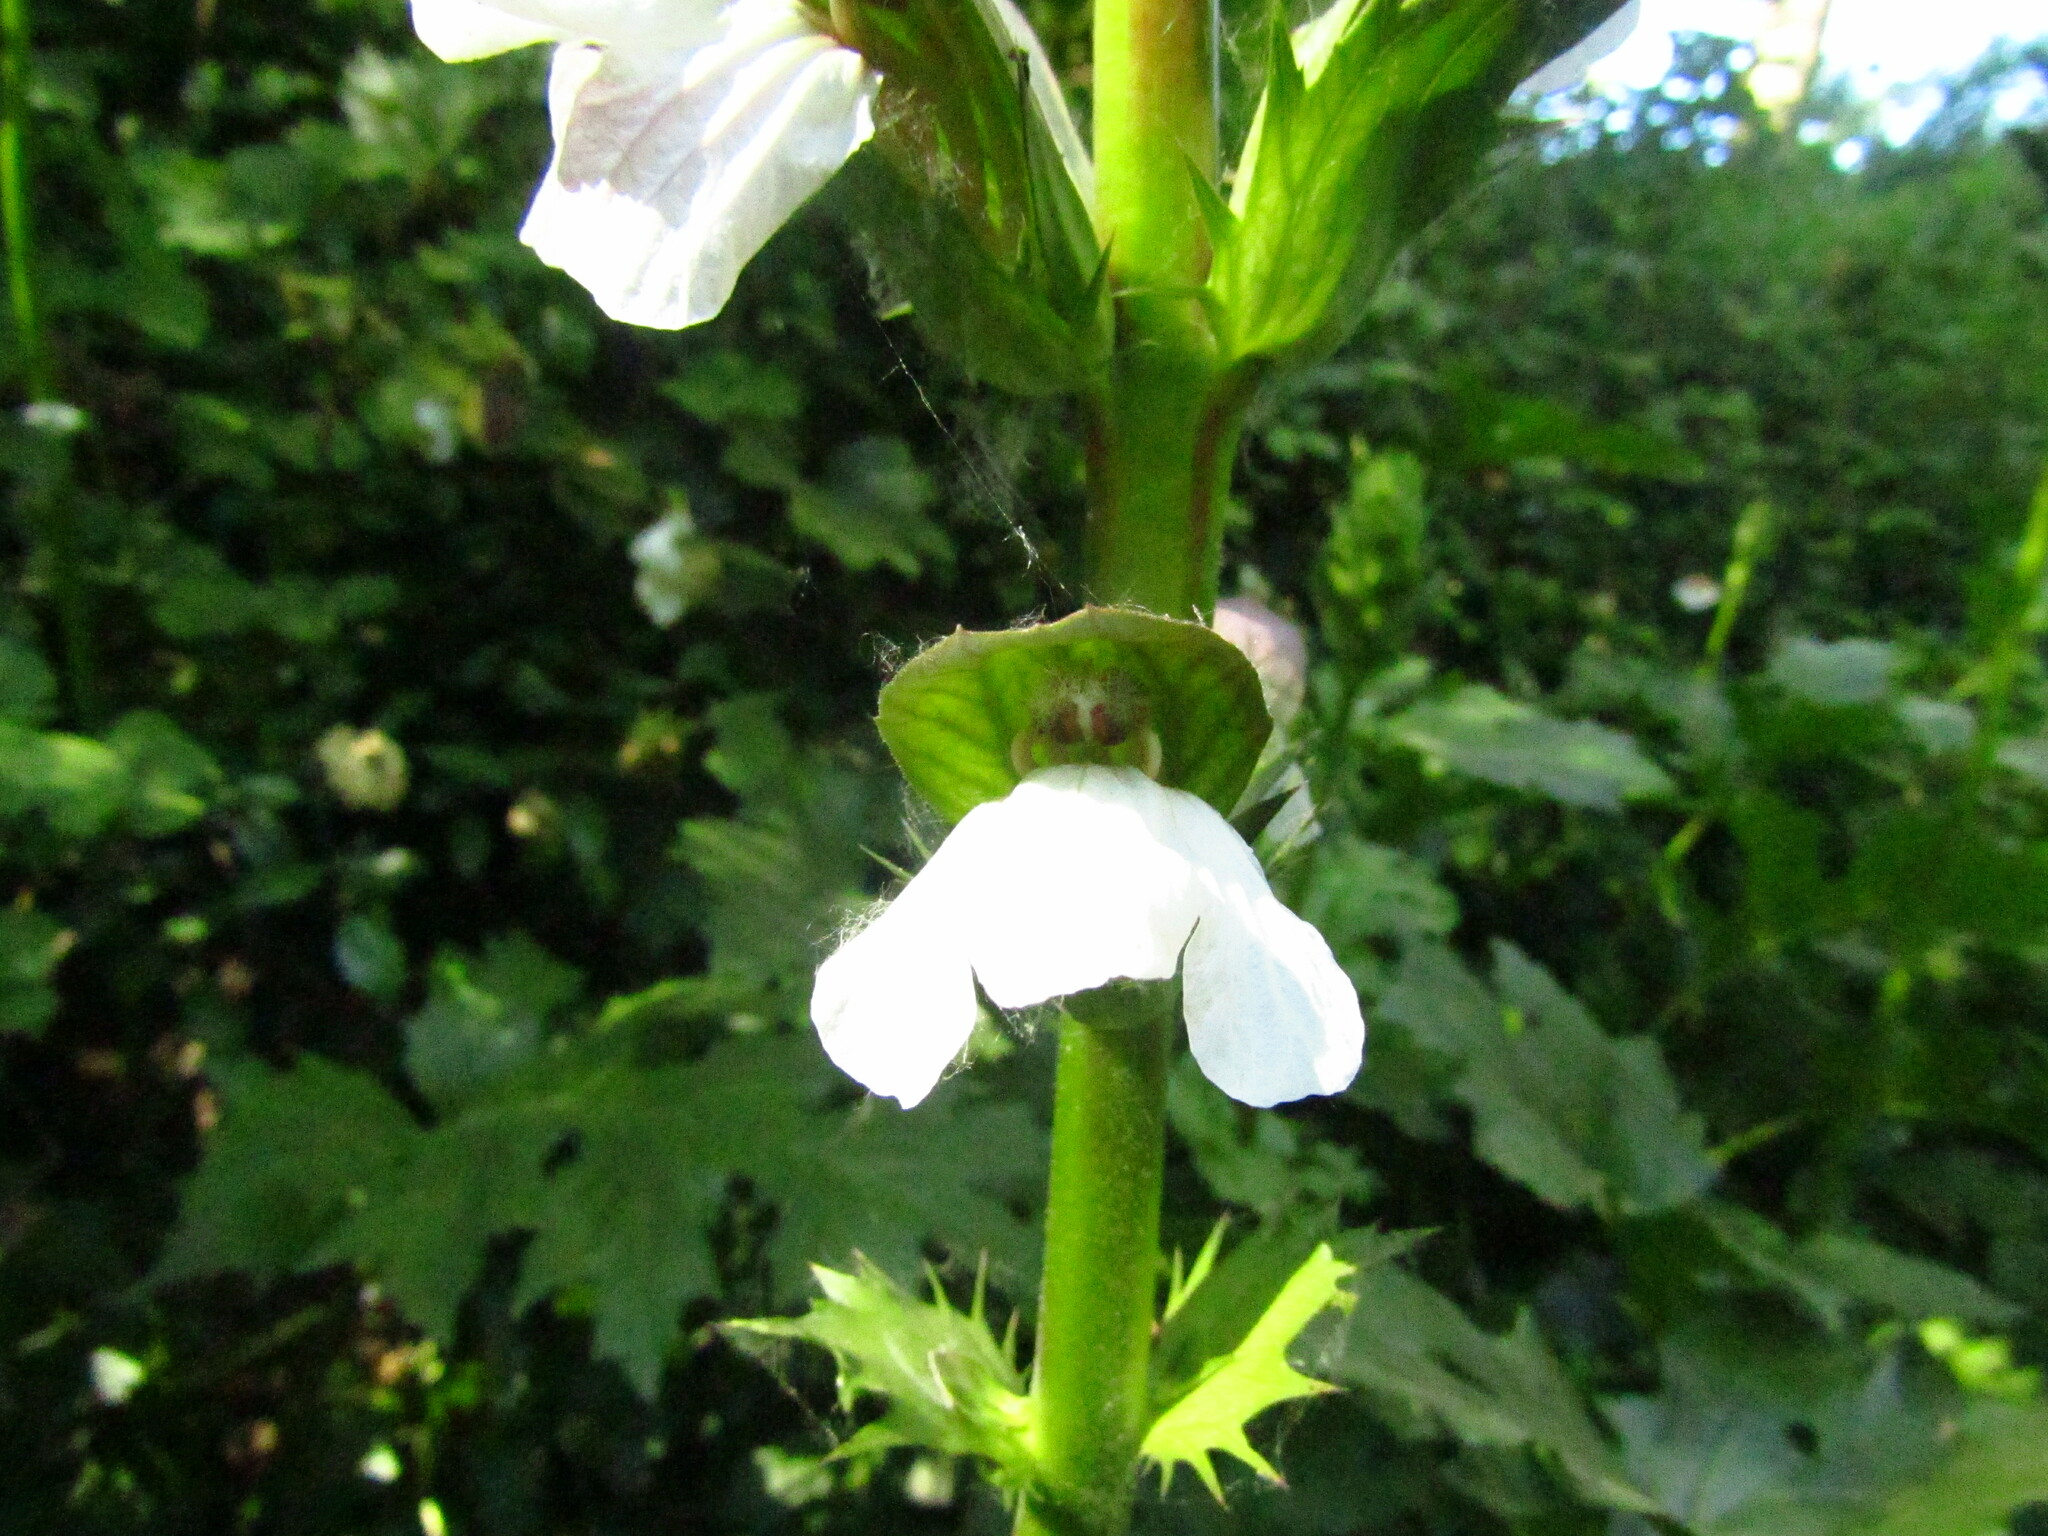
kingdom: Plantae
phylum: Tracheophyta
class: Magnoliopsida
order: Lamiales
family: Acanthaceae
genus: Acanthus
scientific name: Acanthus mollis
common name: Bear's-breech
